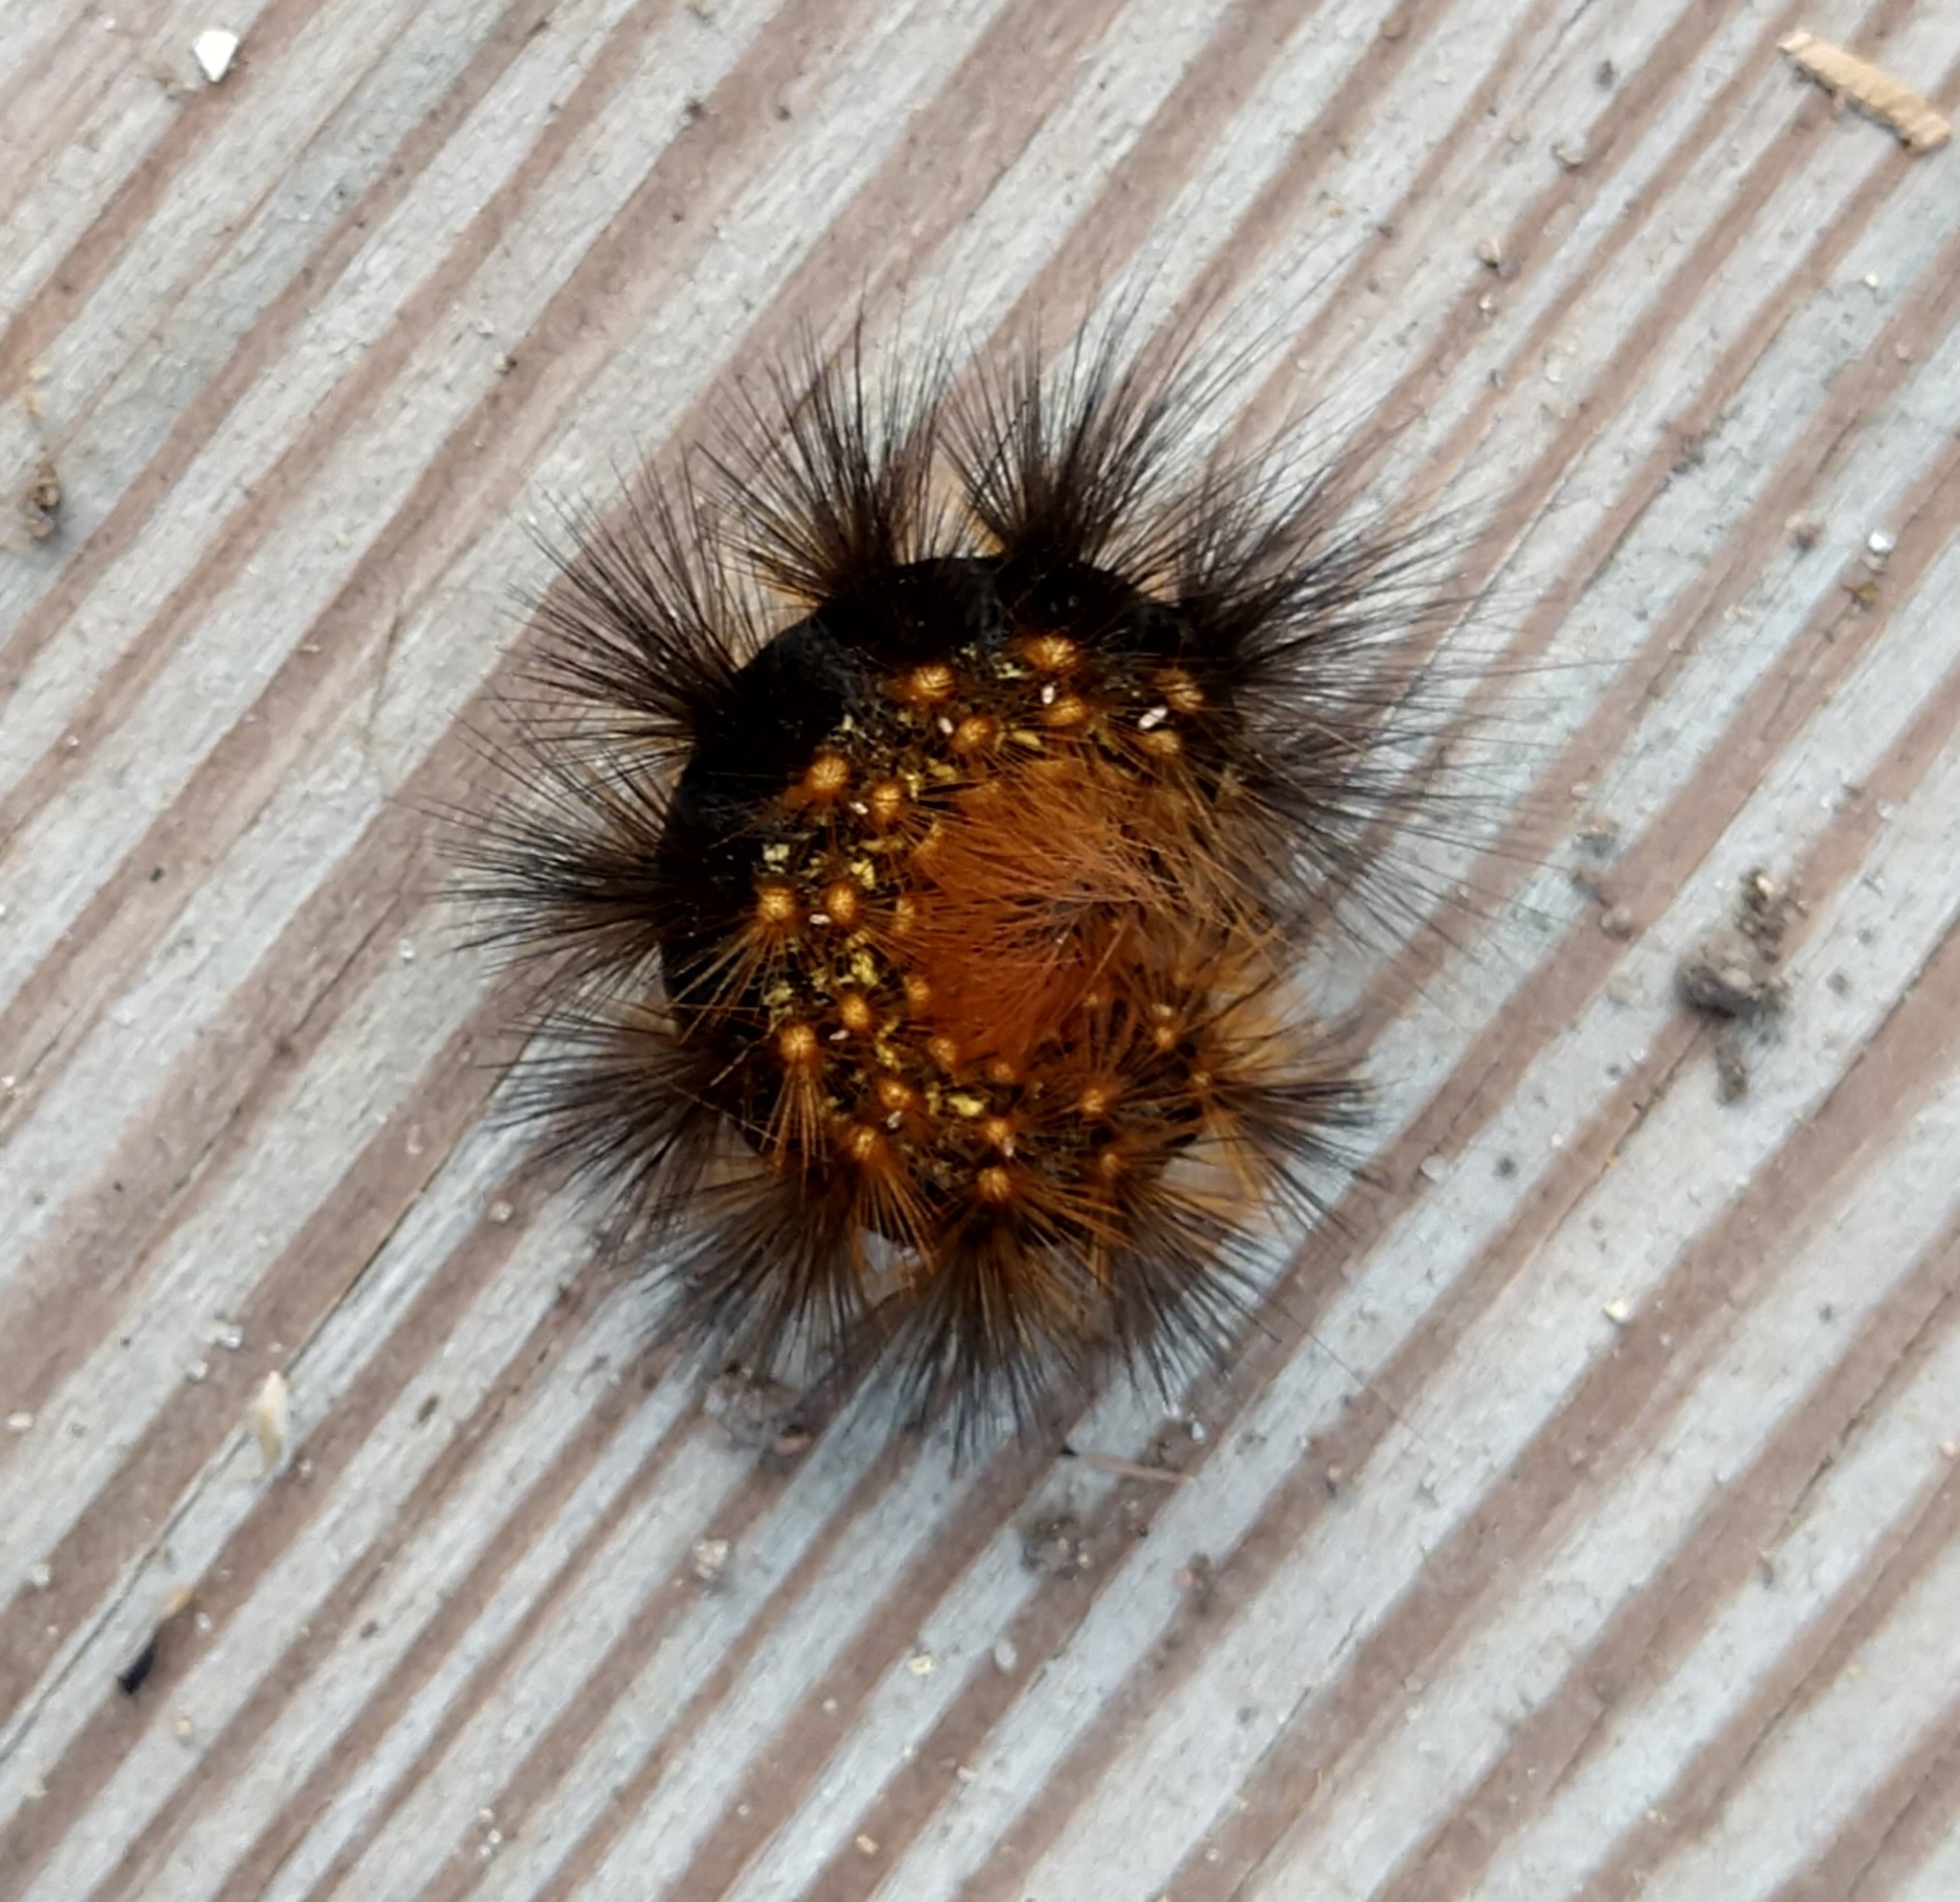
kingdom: Animalia
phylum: Arthropoda
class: Insecta
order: Lepidoptera
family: Erebidae
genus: Estigmene
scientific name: Estigmene acrea
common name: Salt marsh moth
